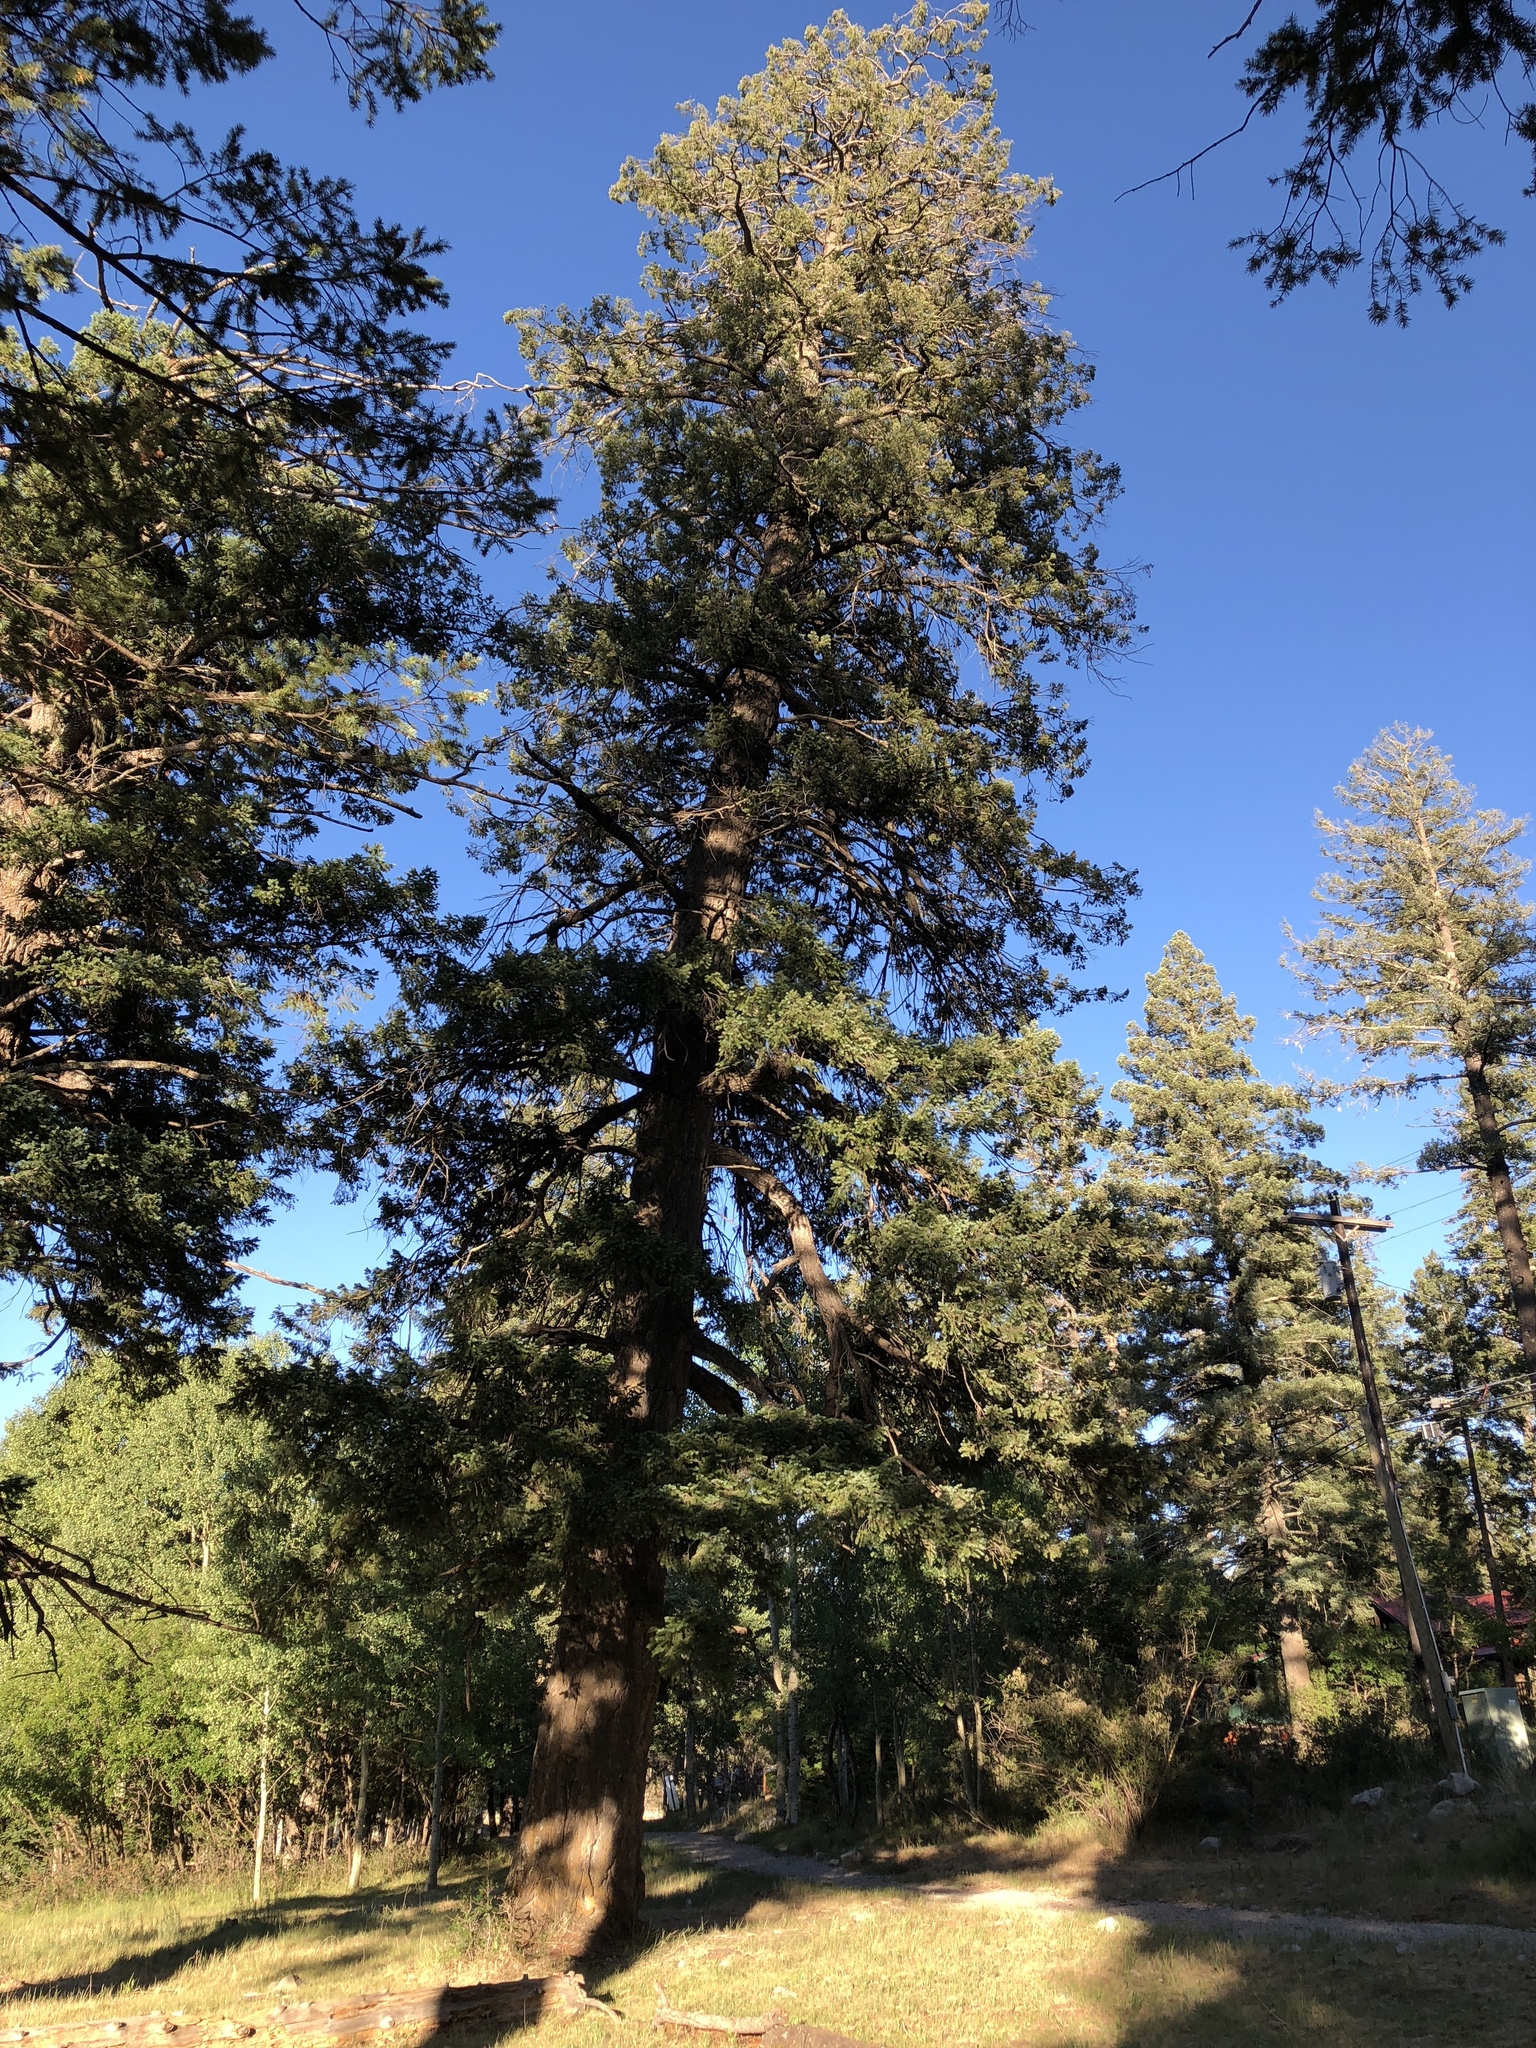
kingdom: Plantae
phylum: Tracheophyta
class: Pinopsida
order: Pinales
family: Pinaceae
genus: Pseudotsuga
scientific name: Pseudotsuga menziesii
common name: Douglas fir
